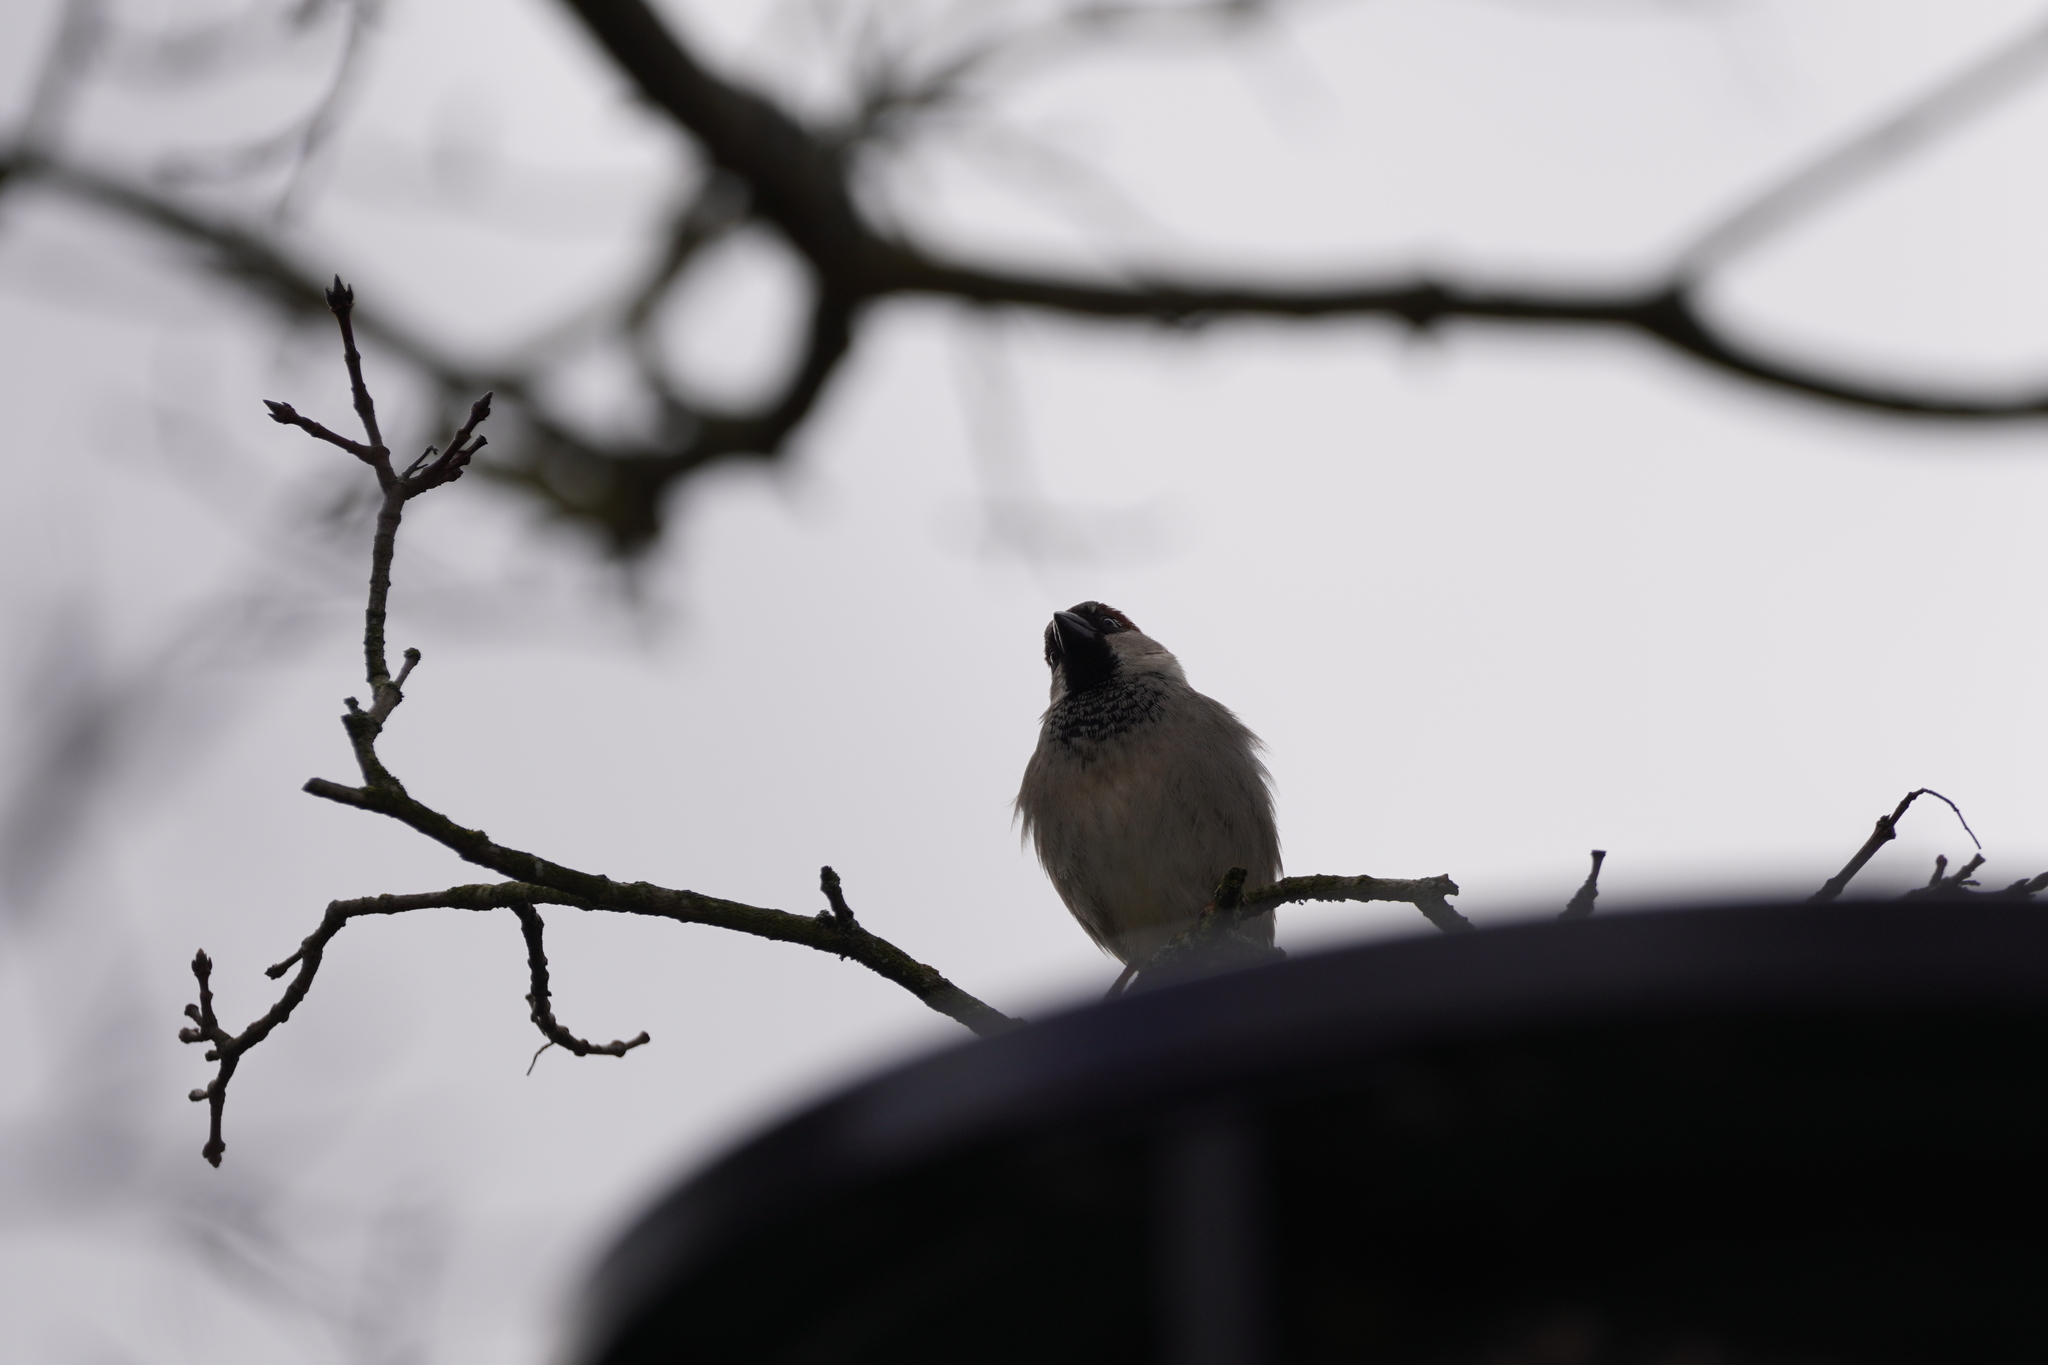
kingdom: Animalia
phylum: Chordata
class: Aves
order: Passeriformes
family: Passeridae
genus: Passer
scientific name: Passer domesticus
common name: House sparrow
